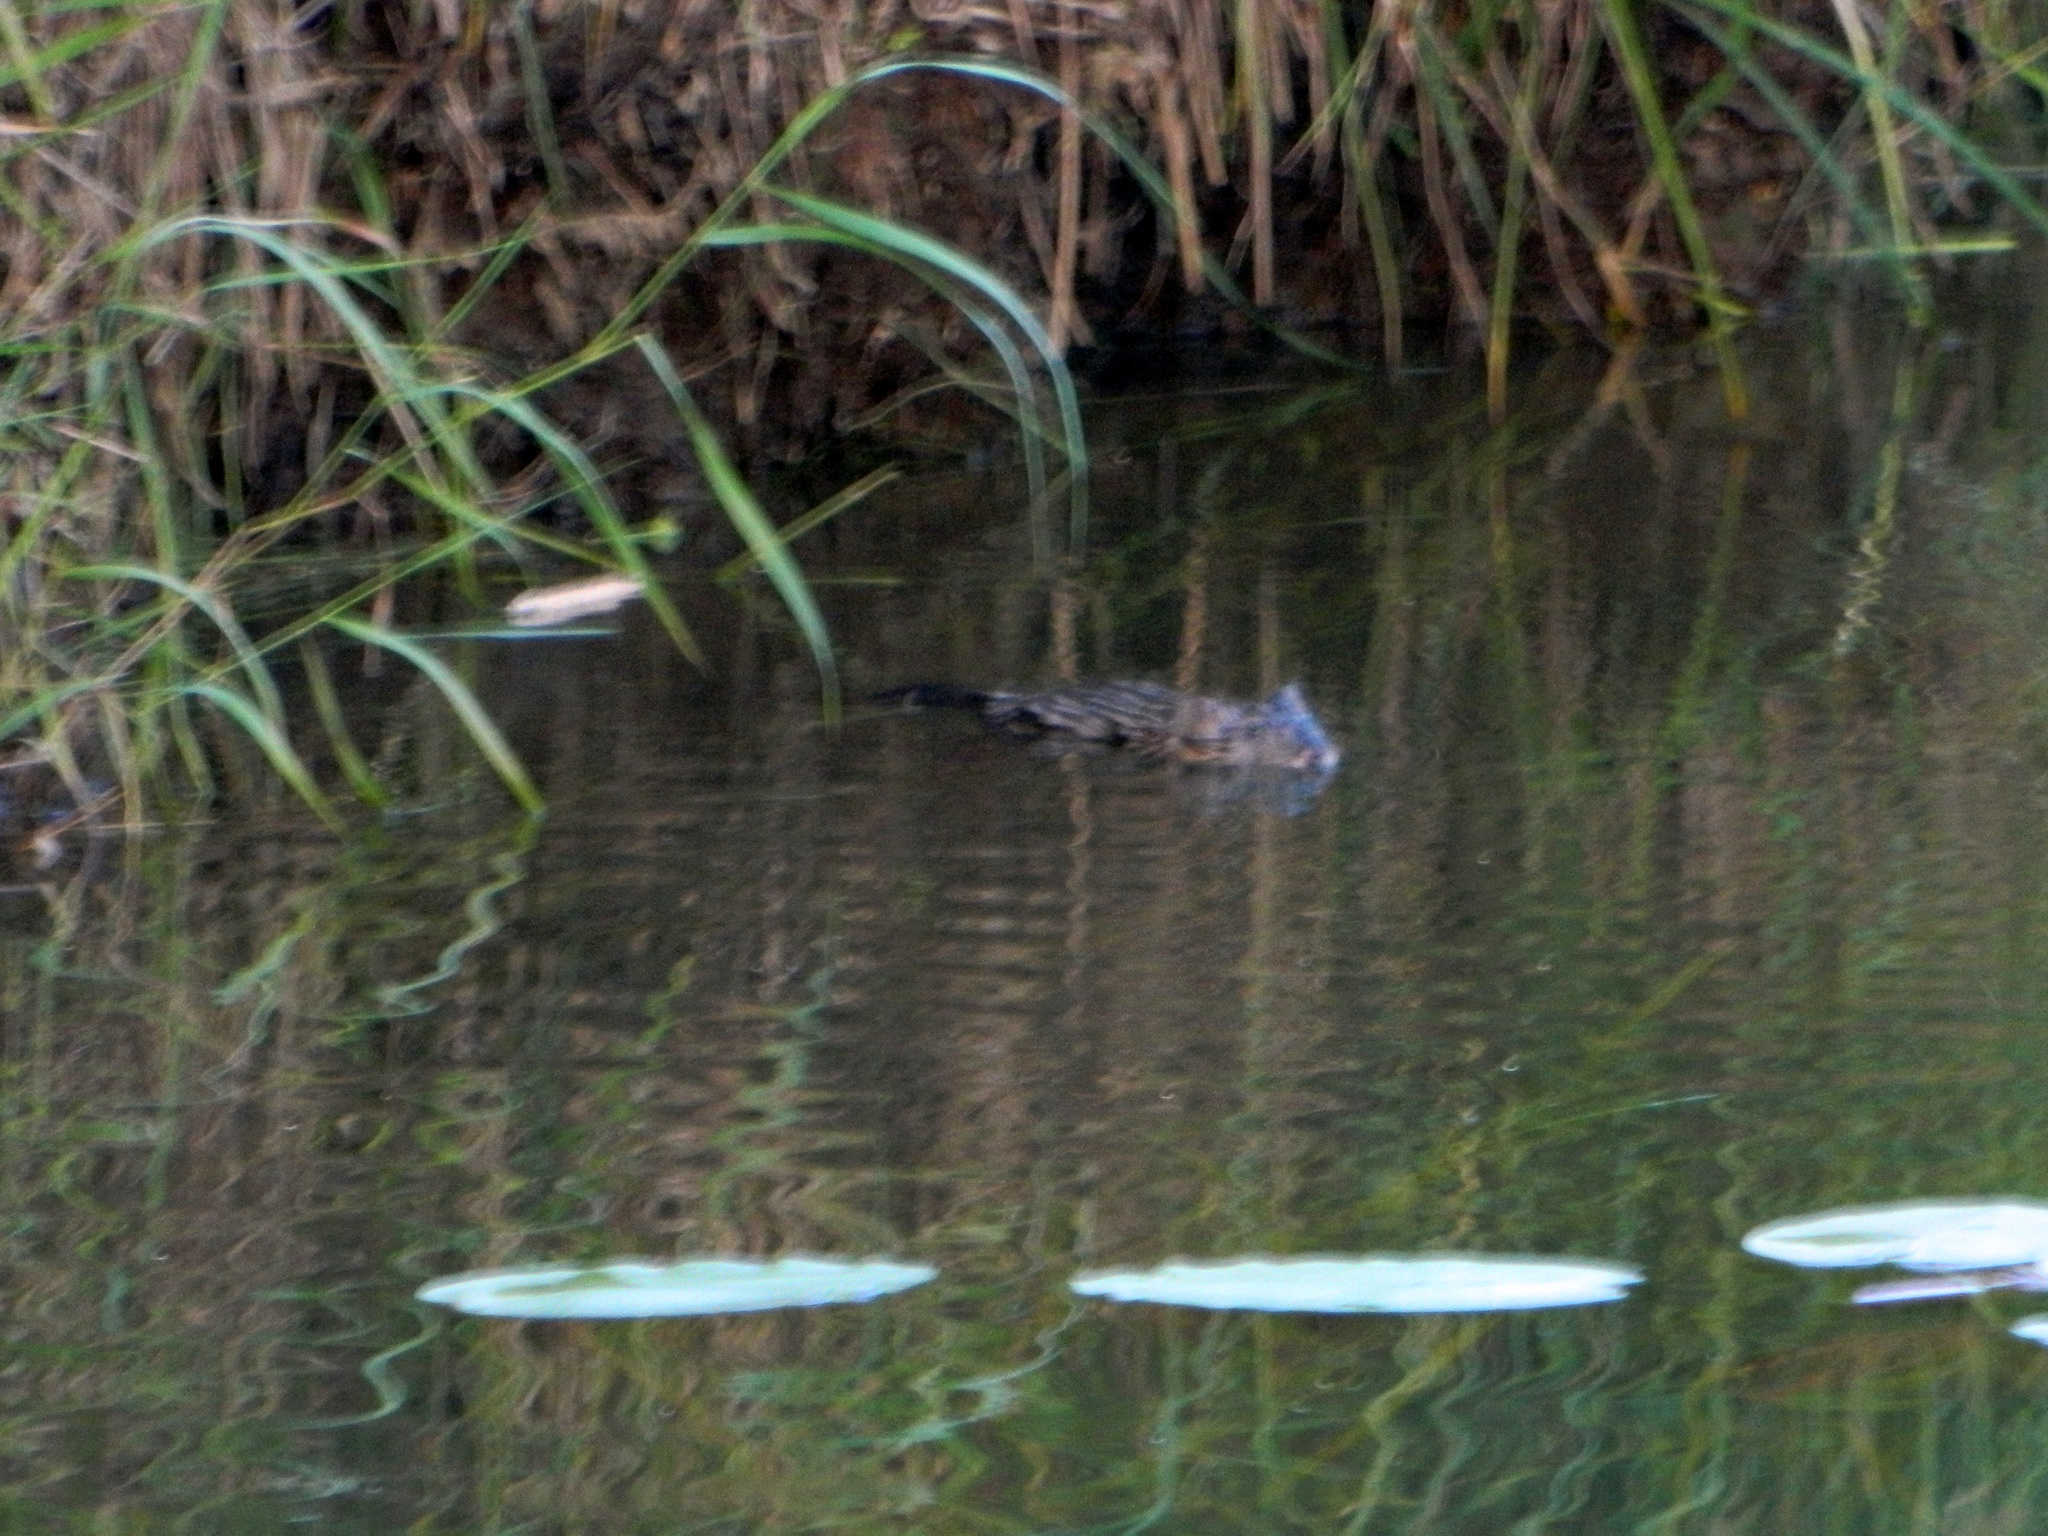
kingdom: Animalia
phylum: Chordata
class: Mammalia
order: Rodentia
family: Cricetidae
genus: Ondatra
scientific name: Ondatra zibethicus
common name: Muskrat
